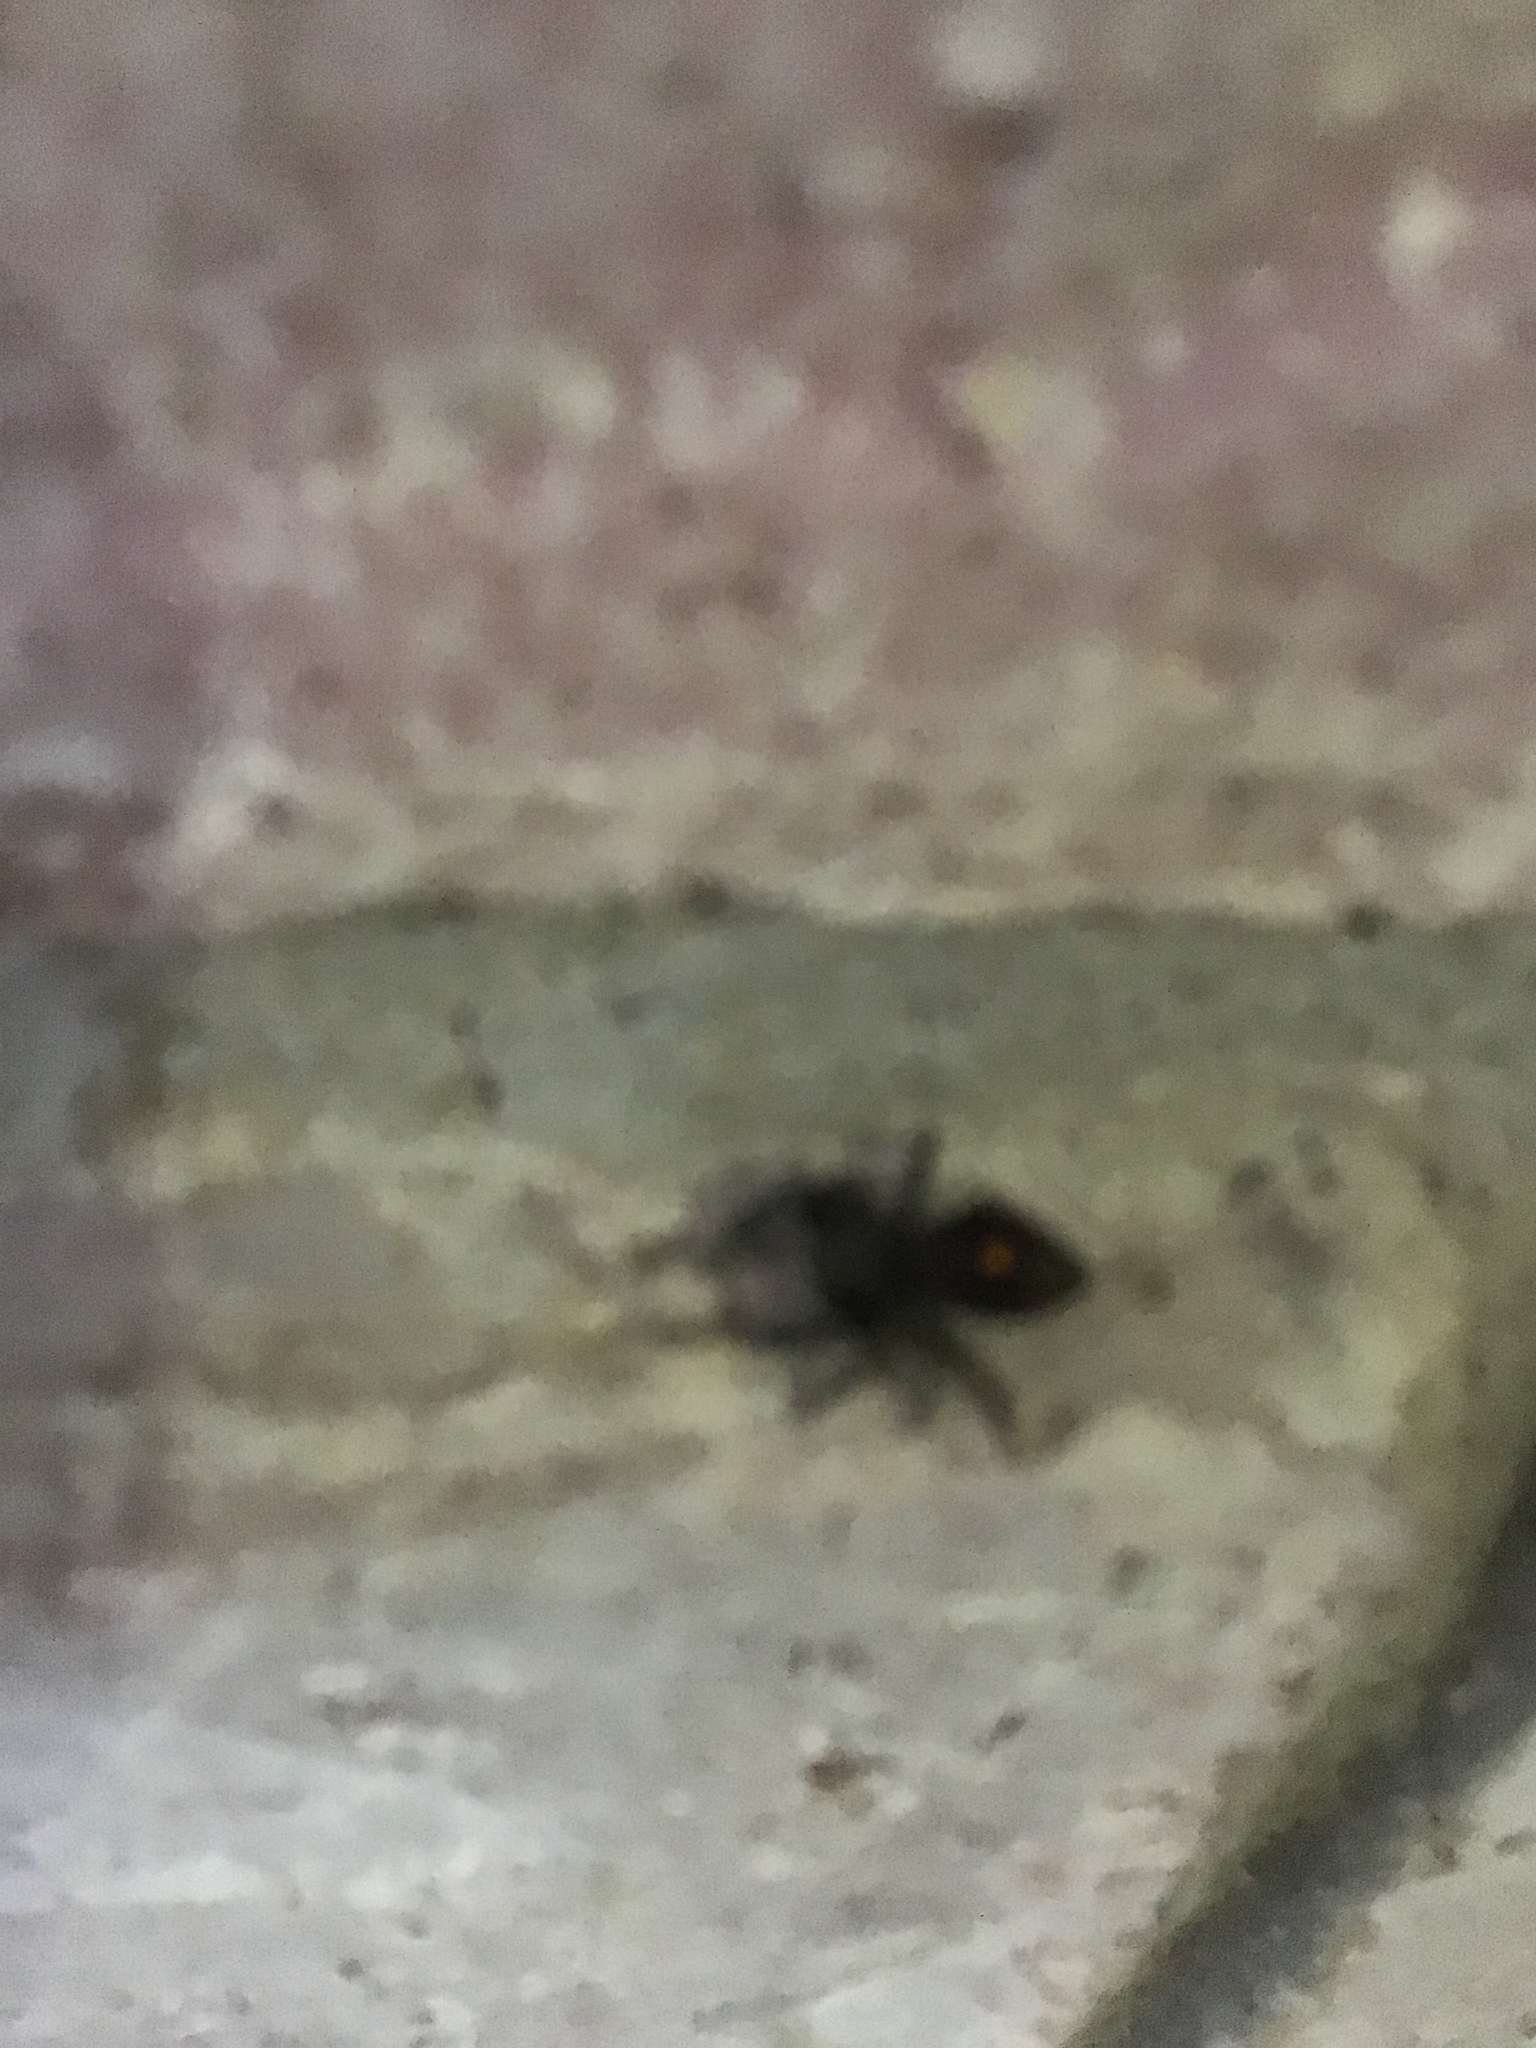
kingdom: Animalia
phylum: Arthropoda
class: Arachnida
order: Araneae
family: Salticidae
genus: Phidippus
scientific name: Phidippus audax
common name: Bold jumper
